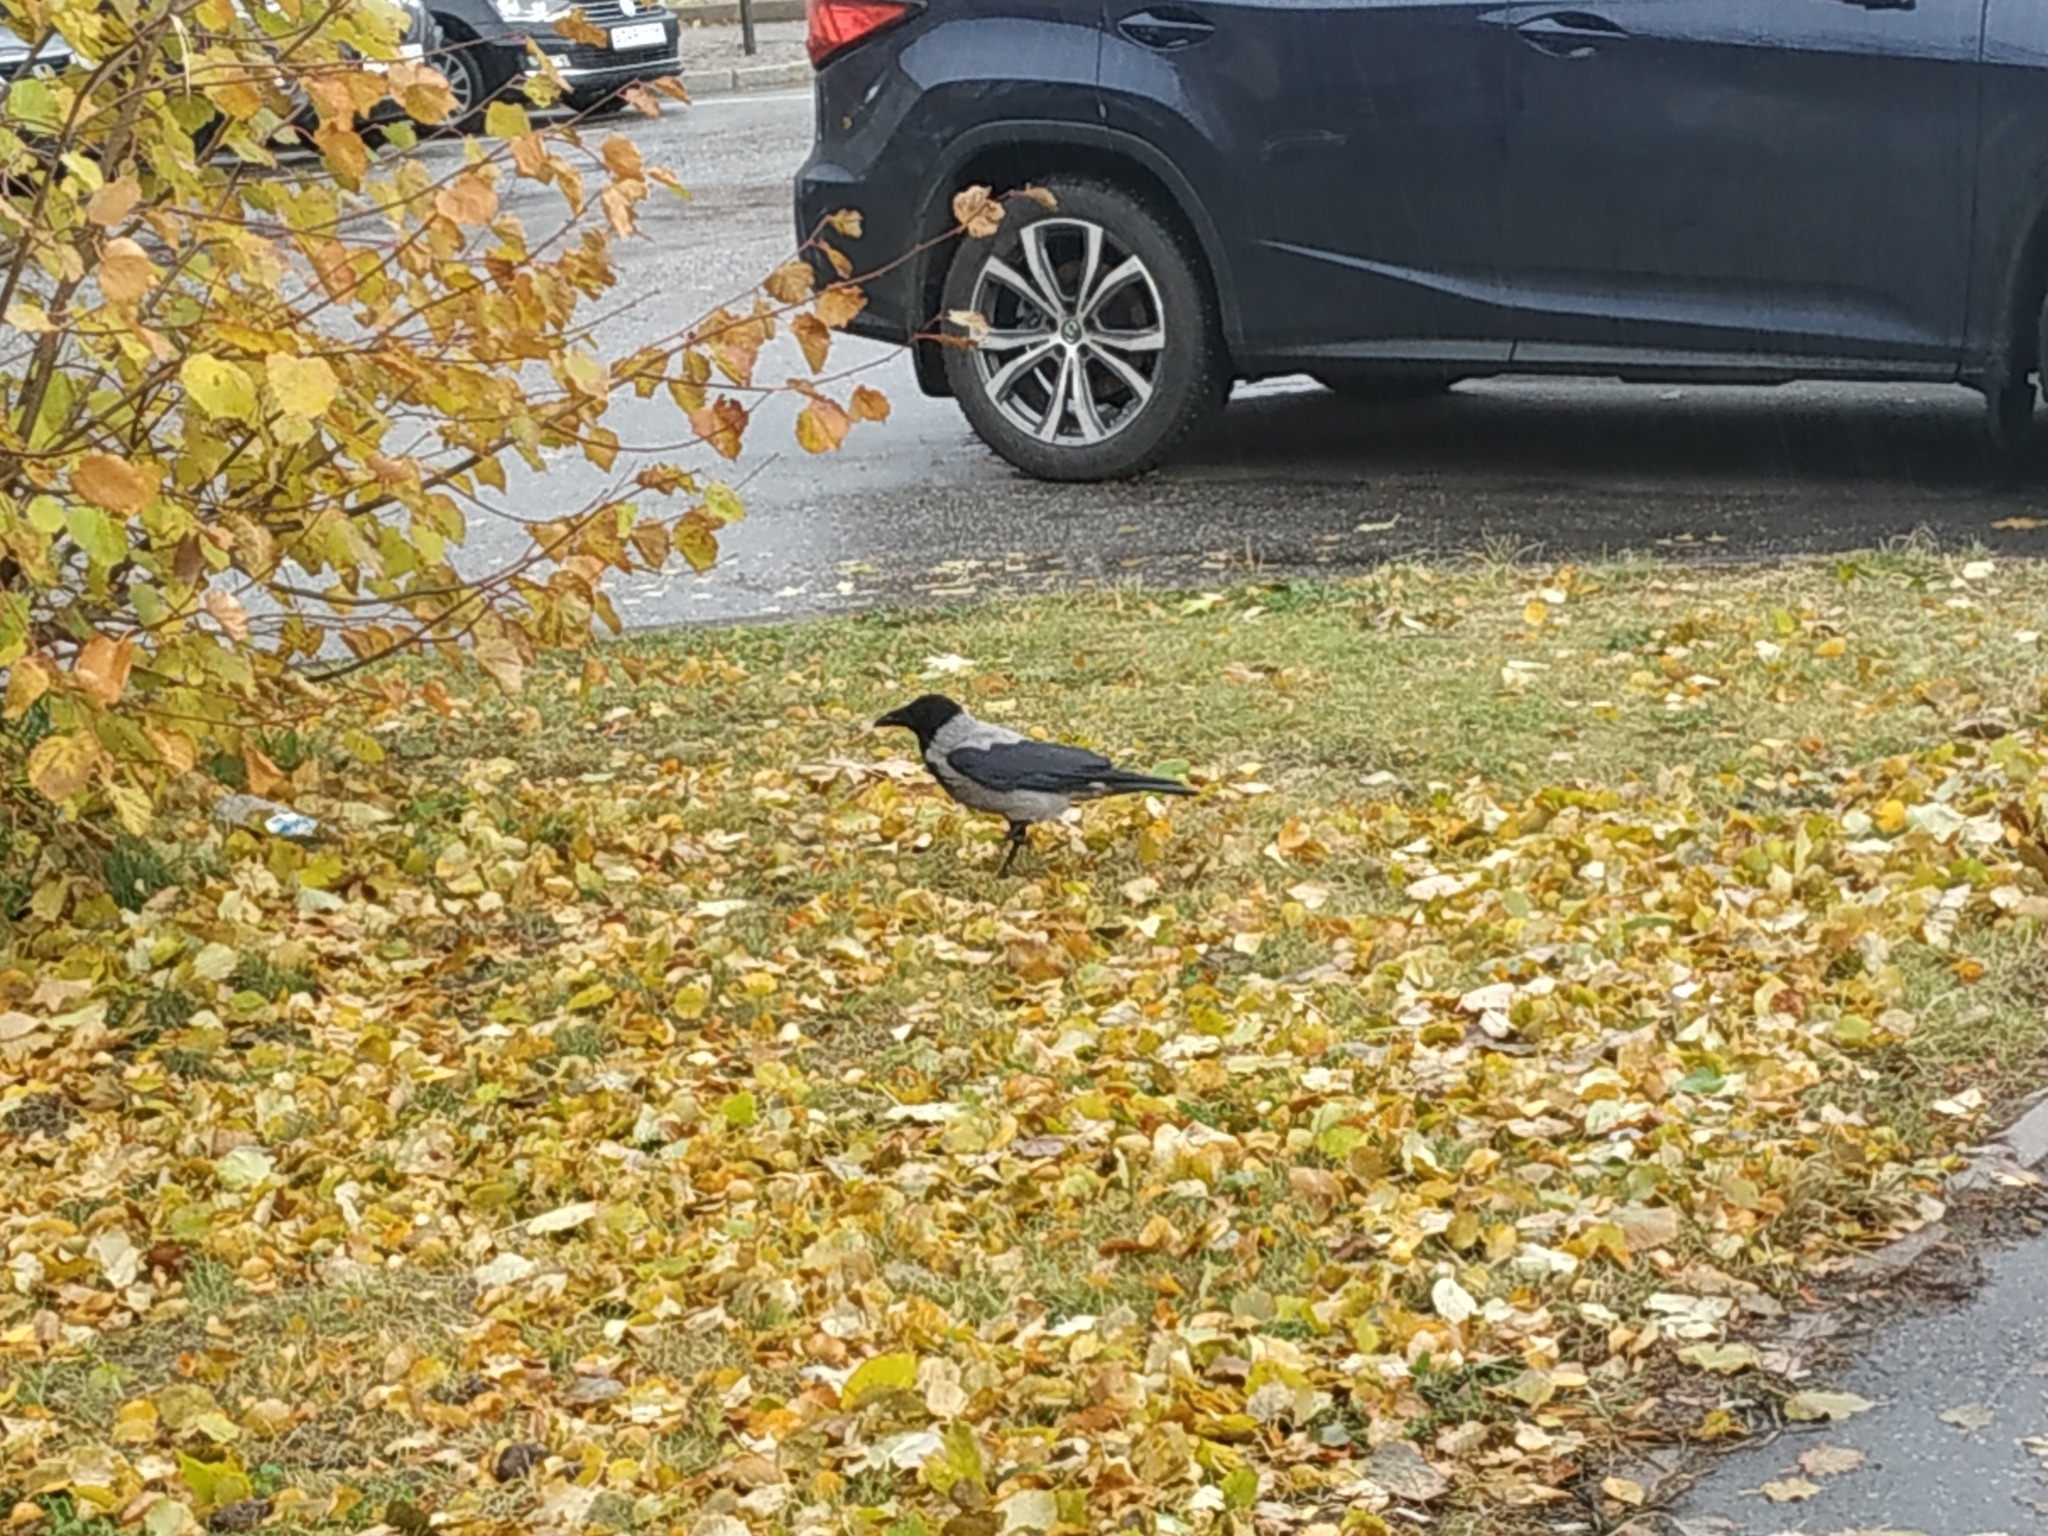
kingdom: Animalia
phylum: Chordata
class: Aves
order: Passeriformes
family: Corvidae
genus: Corvus
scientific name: Corvus cornix
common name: Hooded crow
